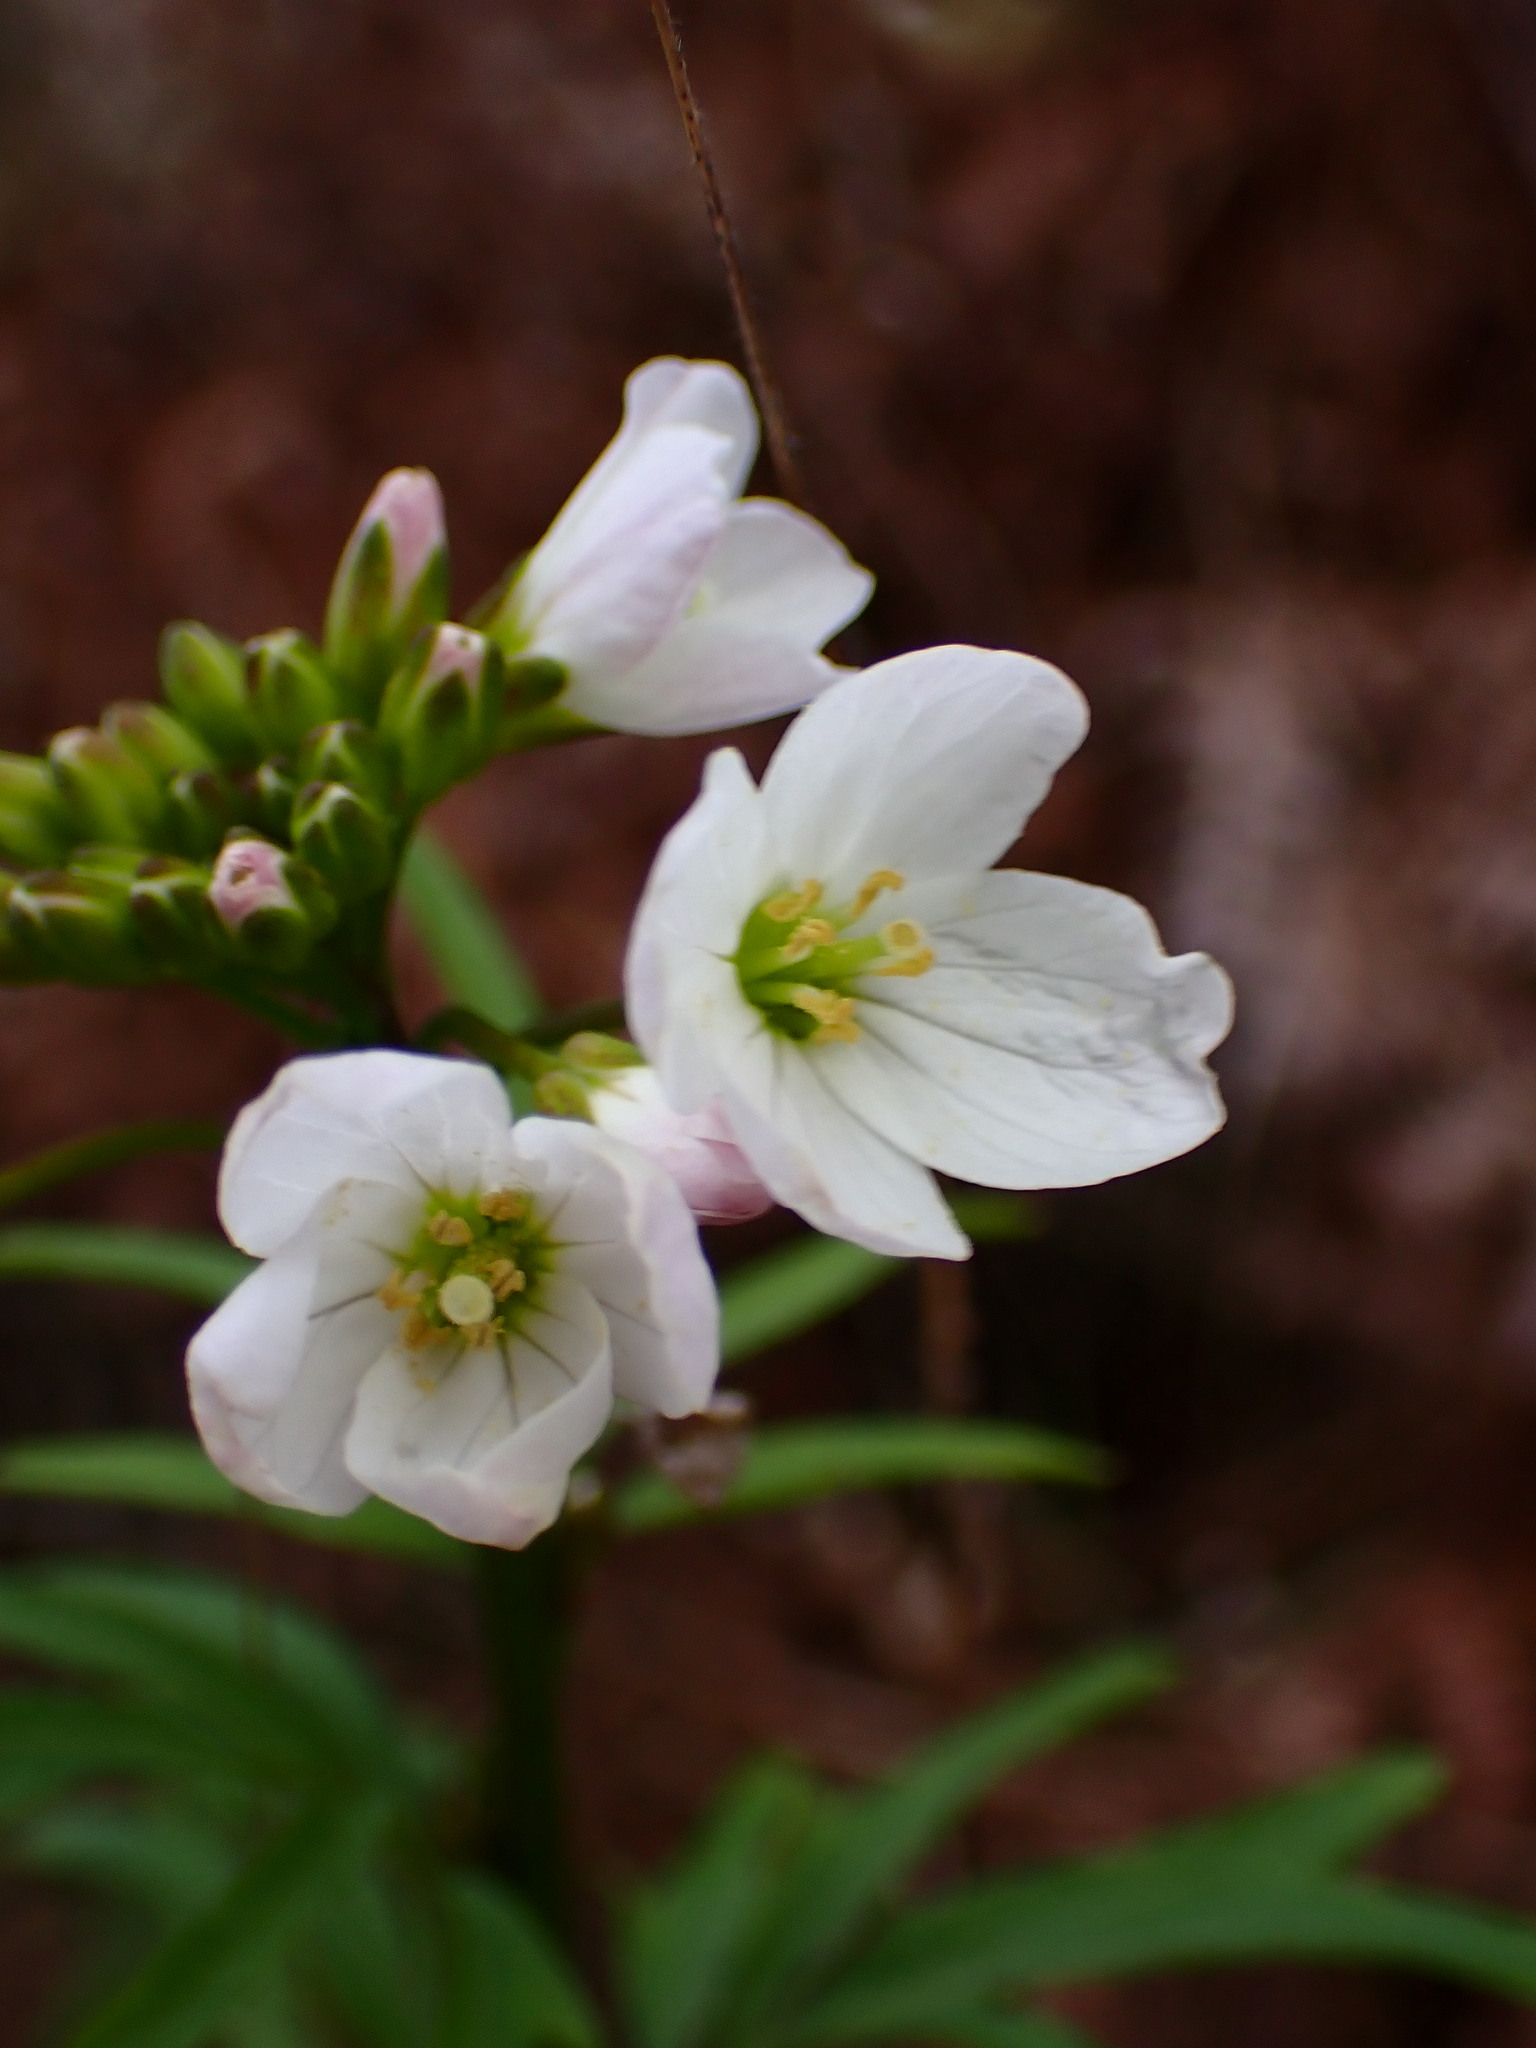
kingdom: Plantae
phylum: Tracheophyta
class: Magnoliopsida
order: Brassicales
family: Brassicaceae
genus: Cardamine
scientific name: Cardamine californica
